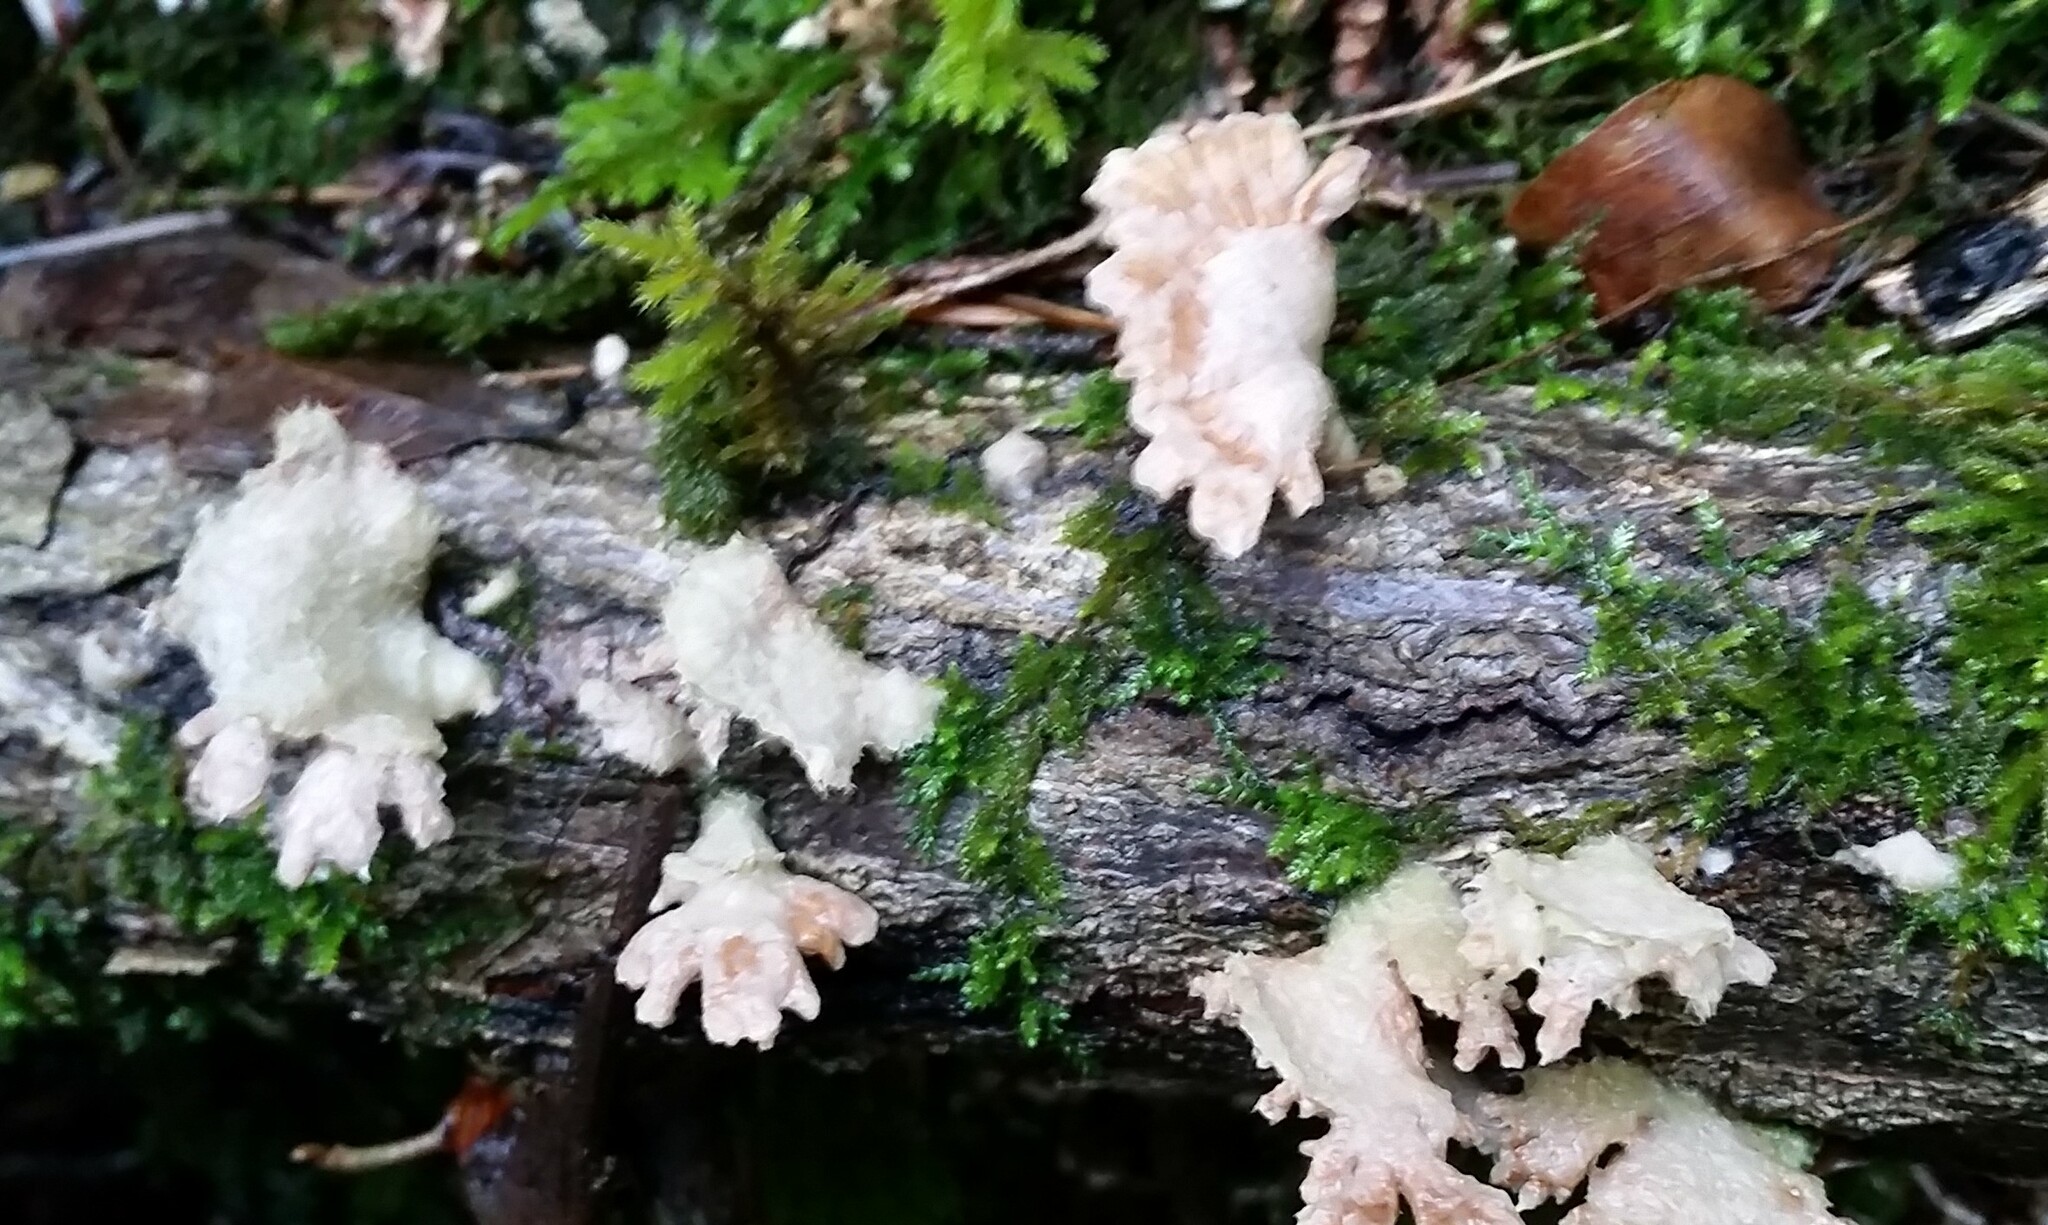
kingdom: Fungi
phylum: Basidiomycota
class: Agaricomycetes
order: Agaricales
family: Schizophyllaceae
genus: Schizophyllum
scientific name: Schizophyllum commune
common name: Common porecrust
